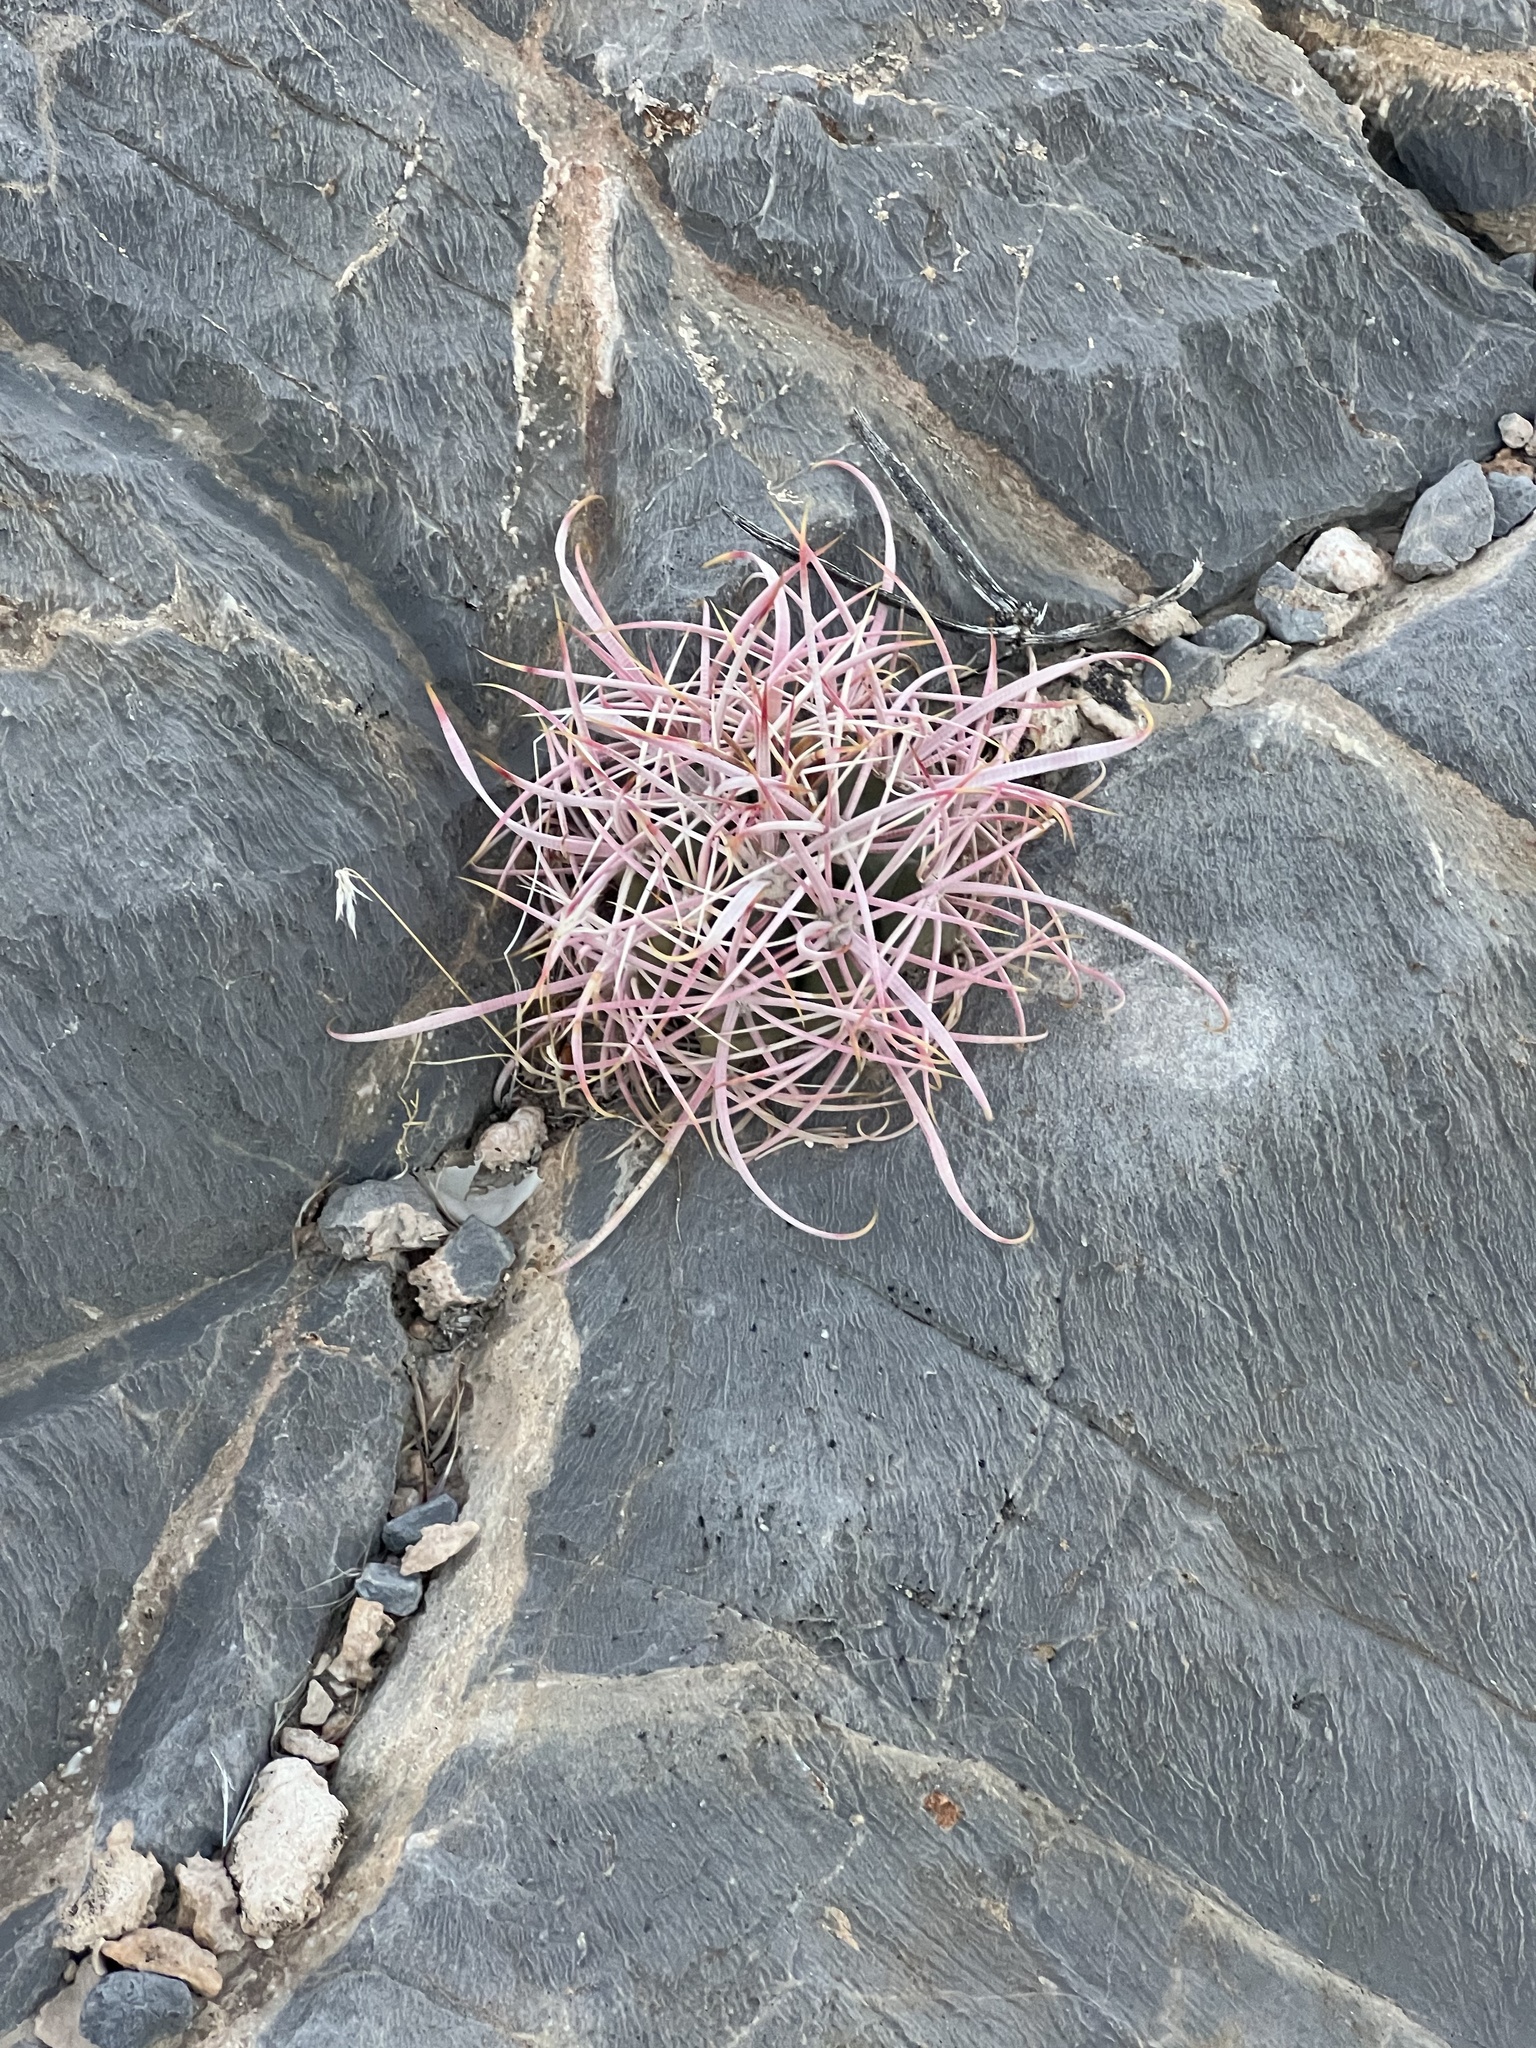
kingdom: Plantae
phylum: Tracheophyta
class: Magnoliopsida
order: Caryophyllales
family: Cactaceae
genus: Ferocactus
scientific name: Ferocactus cylindraceus
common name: California barrel cactus
